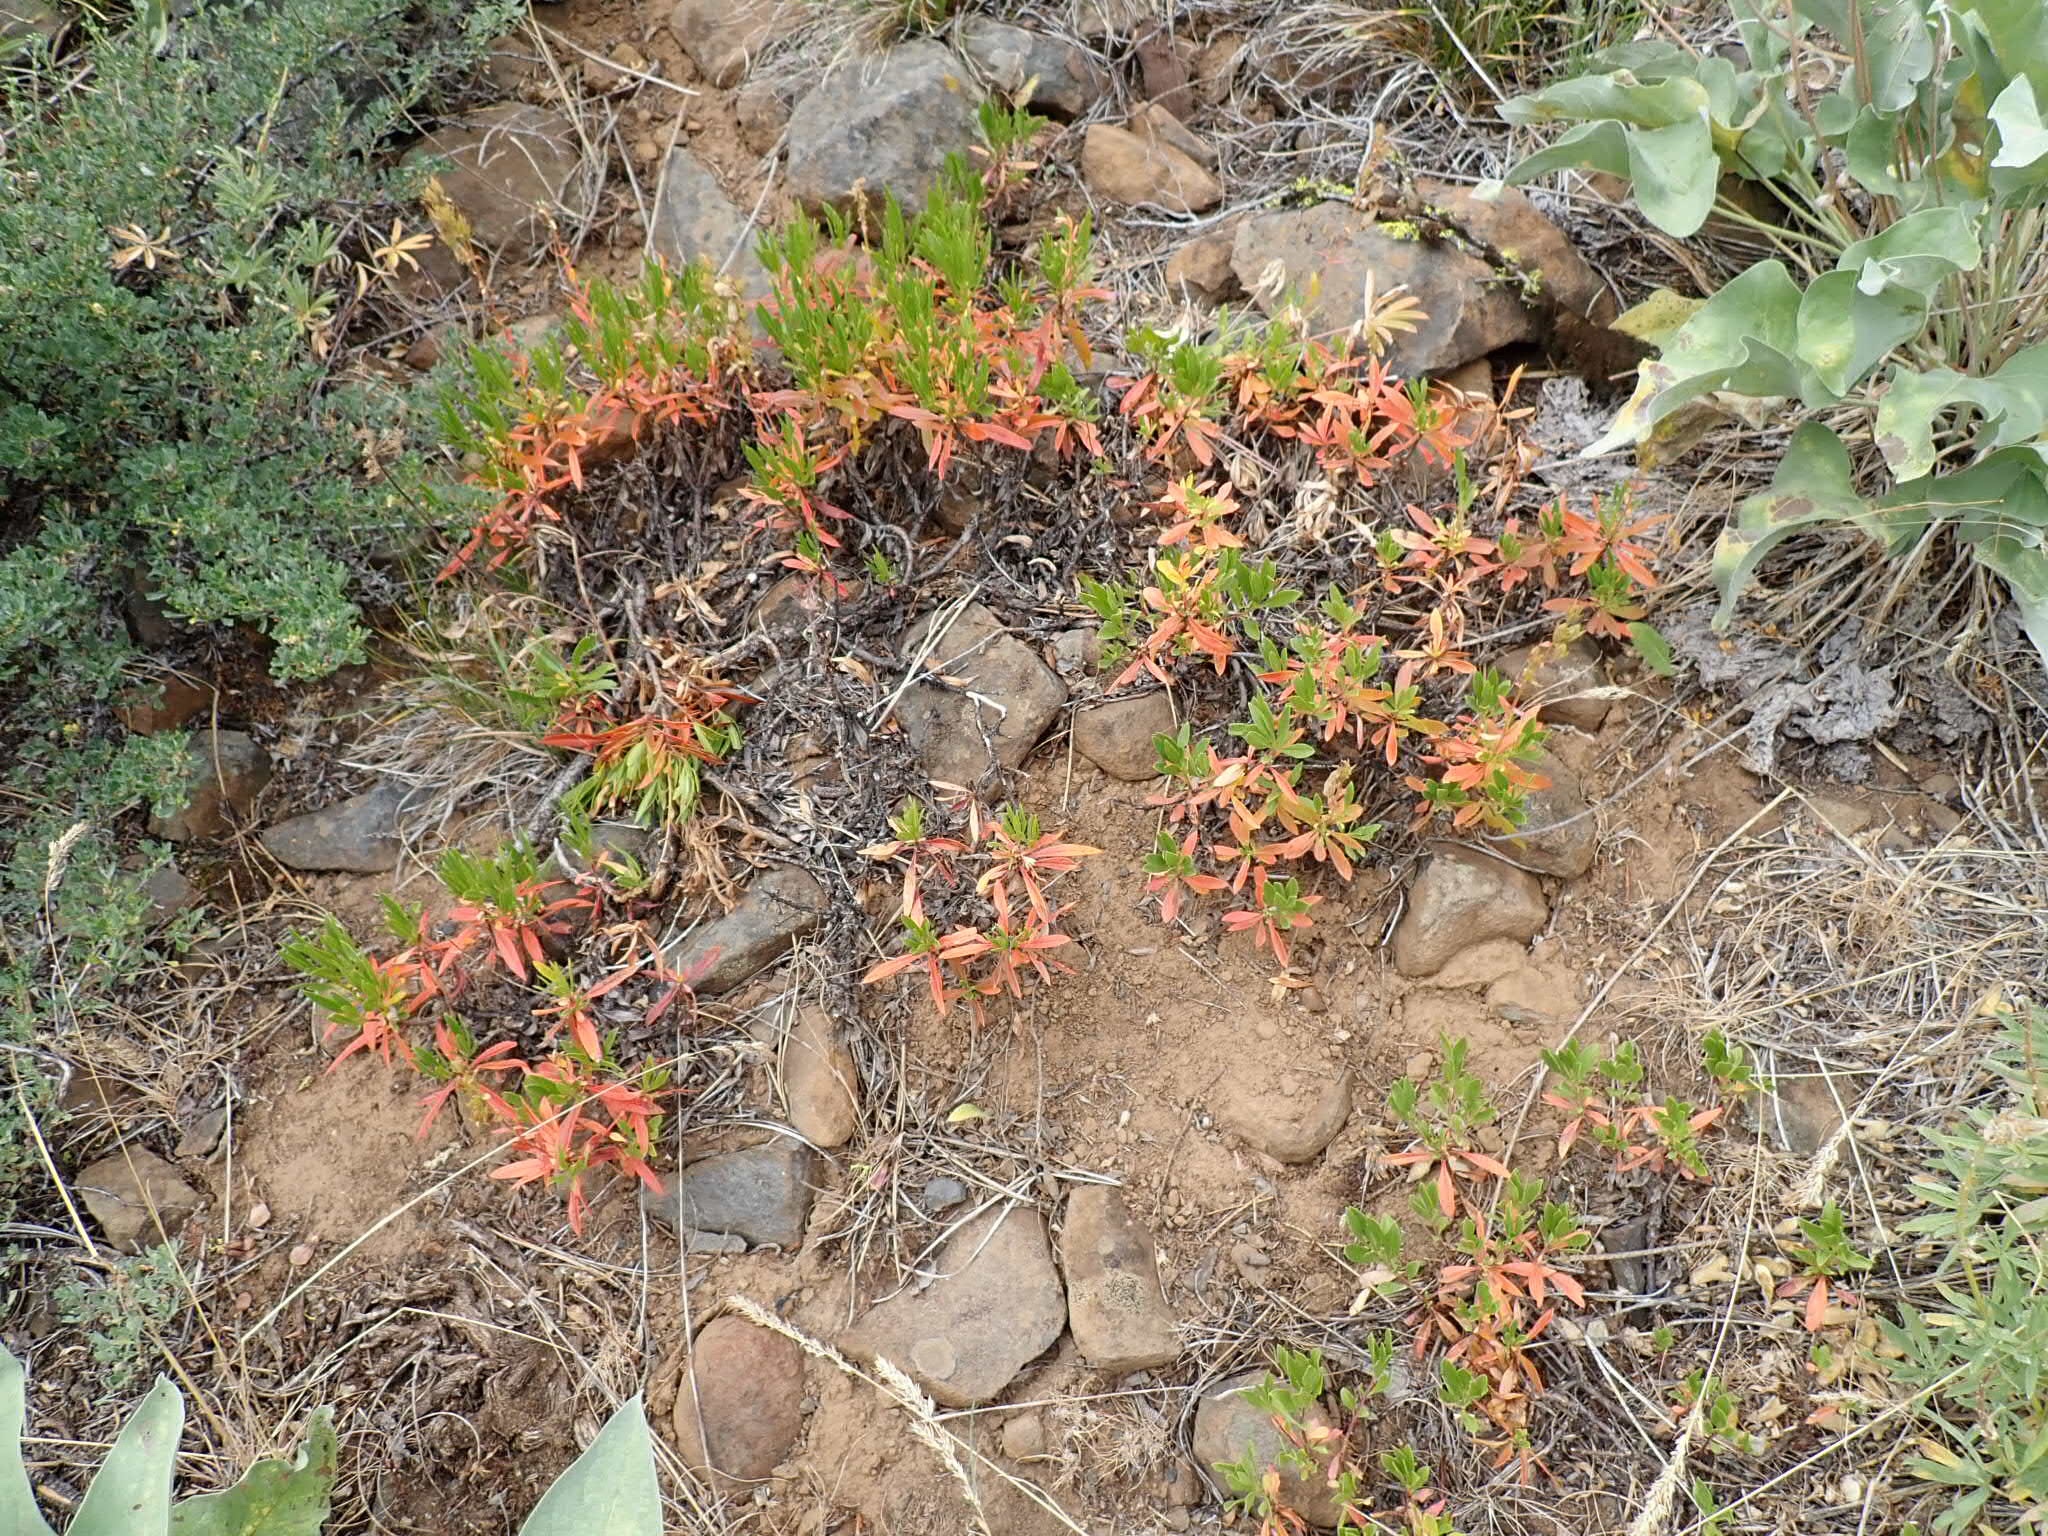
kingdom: Plantae
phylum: Tracheophyta
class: Magnoliopsida
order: Lamiales
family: Plantaginaceae
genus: Penstemon
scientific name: Penstemon fruticosus
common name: Bush penstemon
